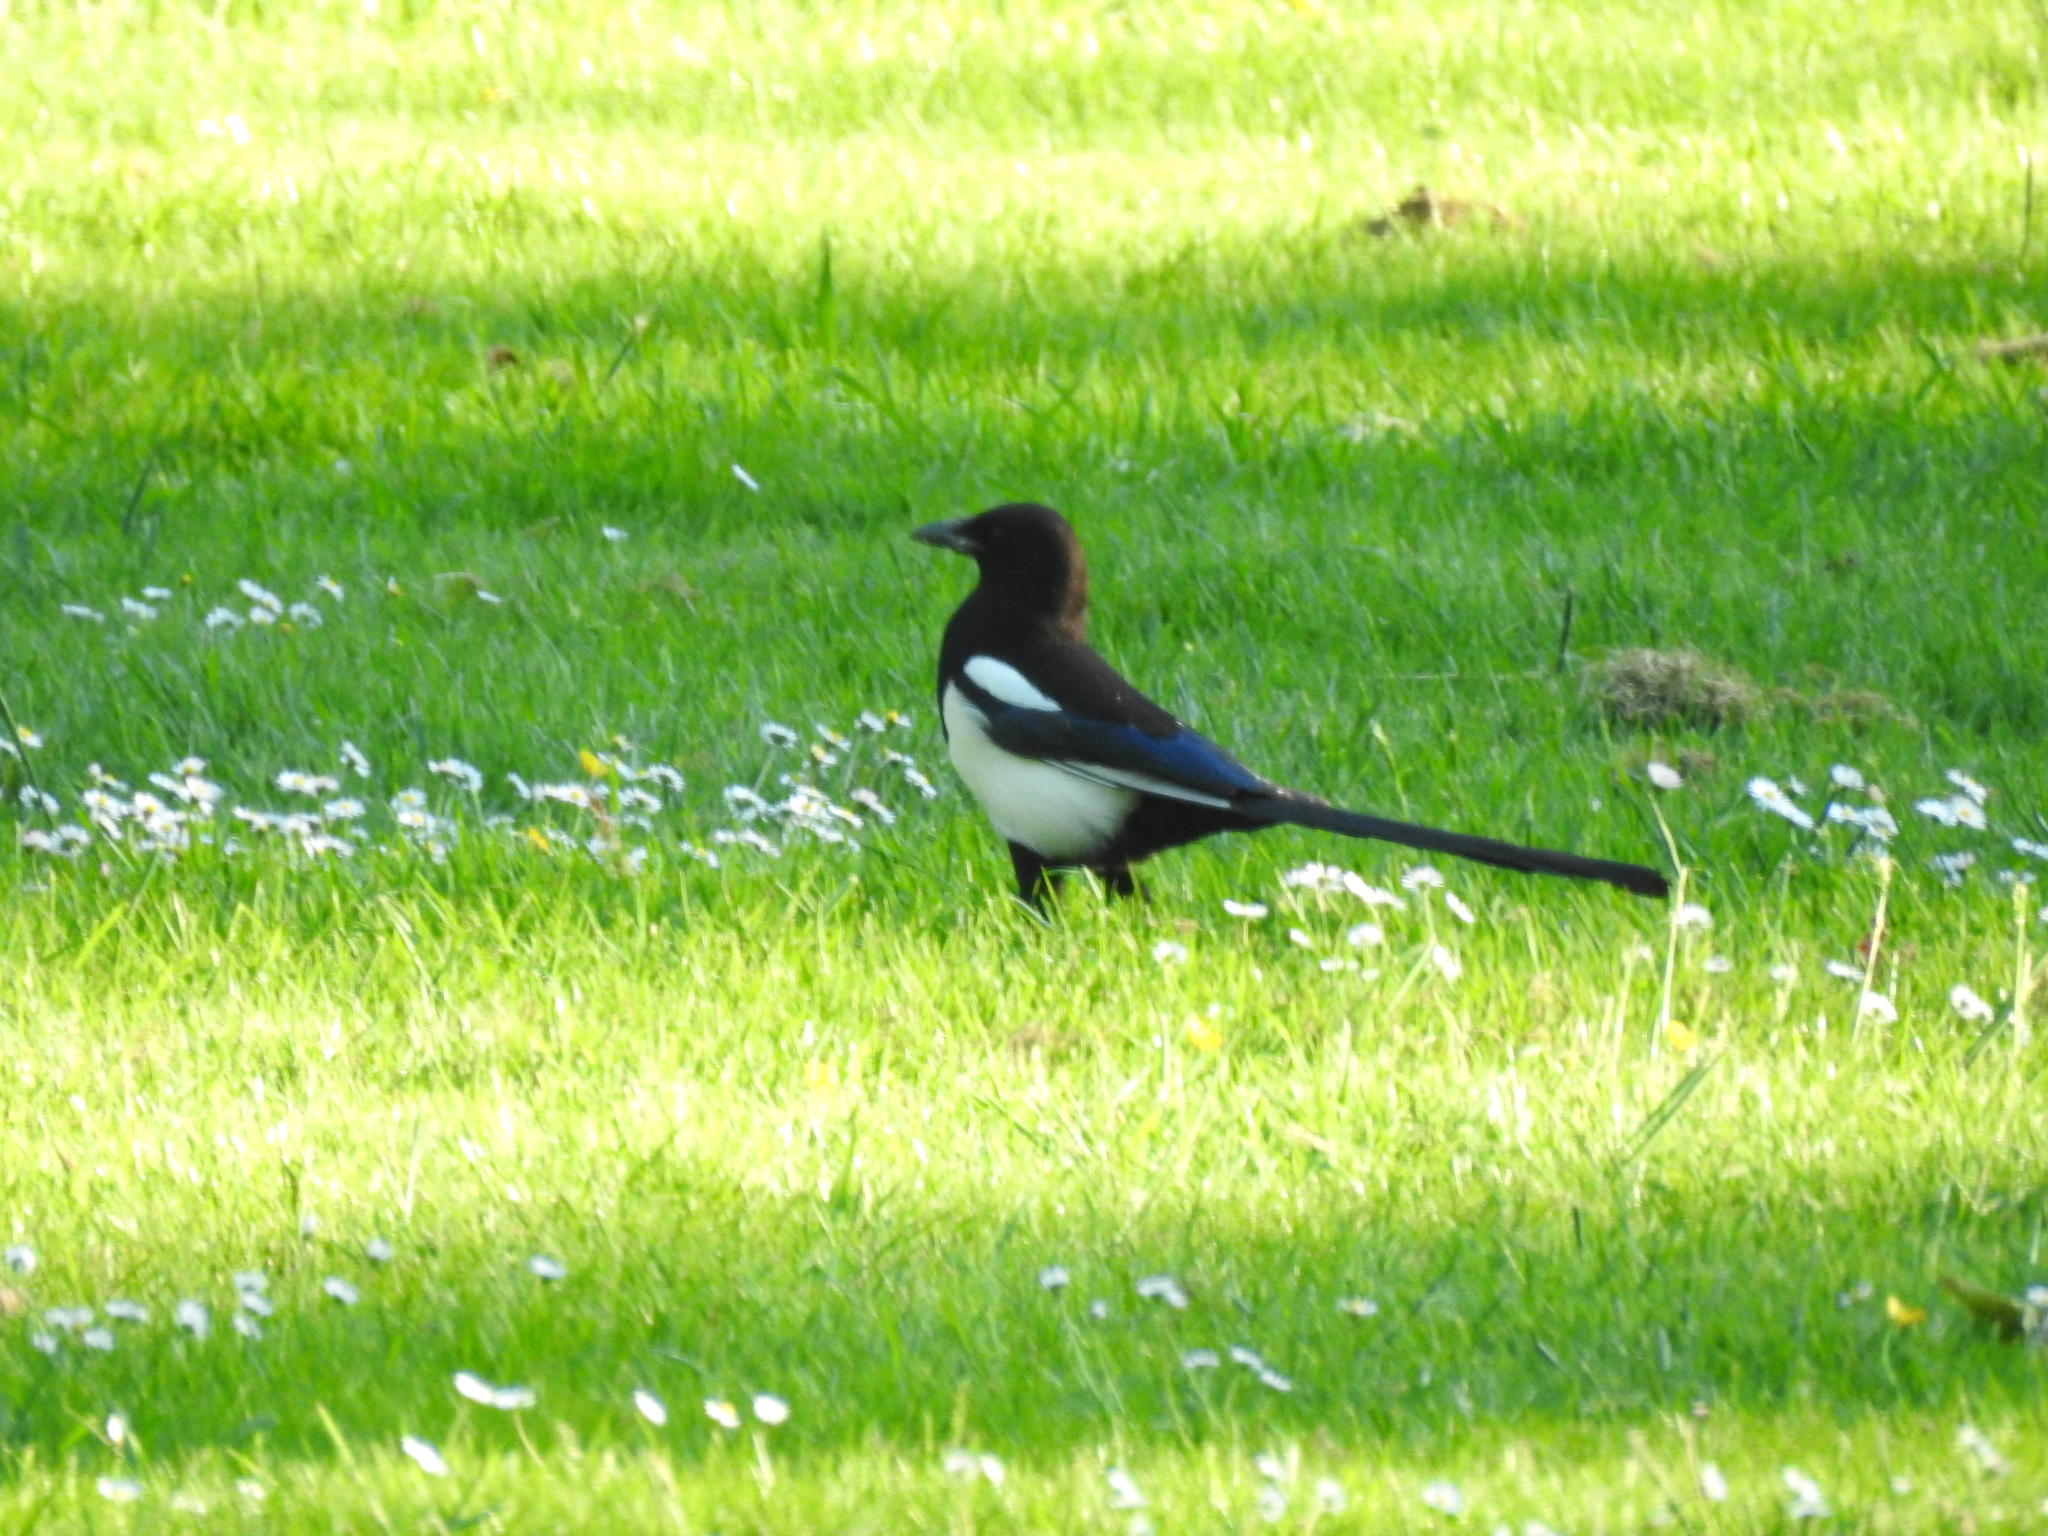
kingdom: Animalia
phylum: Chordata
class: Aves
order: Passeriformes
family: Corvidae
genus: Pica
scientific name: Pica pica
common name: Eurasian magpie
